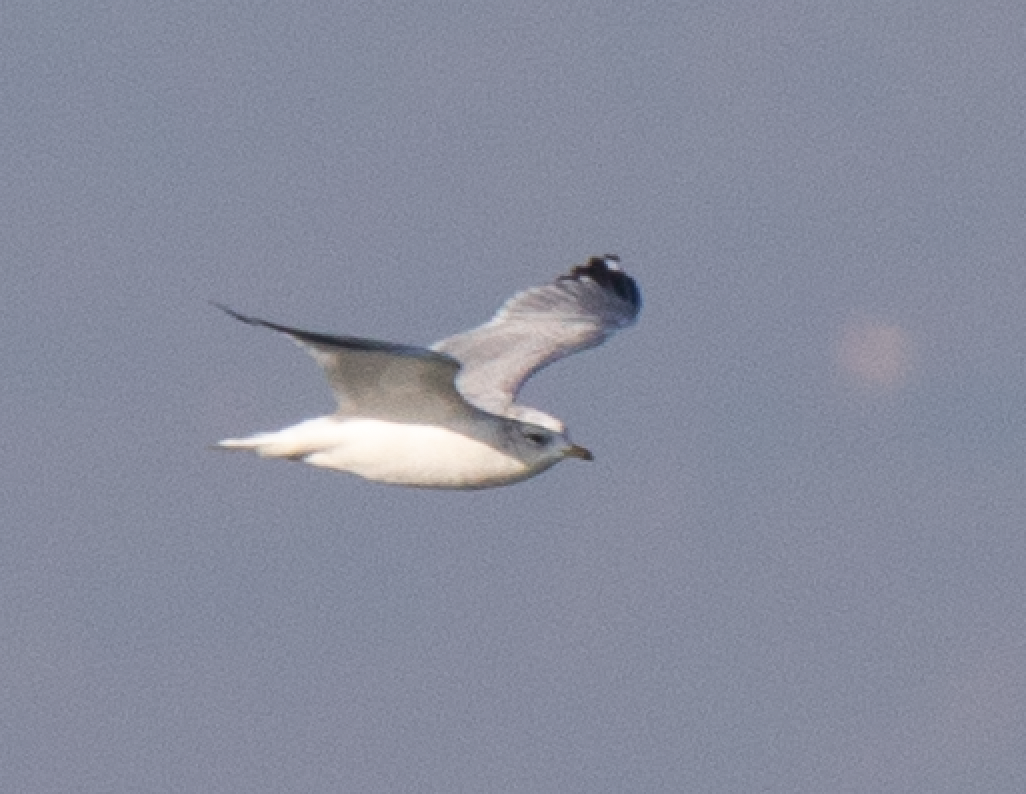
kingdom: Animalia
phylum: Chordata
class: Aves
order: Charadriiformes
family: Laridae
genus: Larus
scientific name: Larus canus
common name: Mew gull
